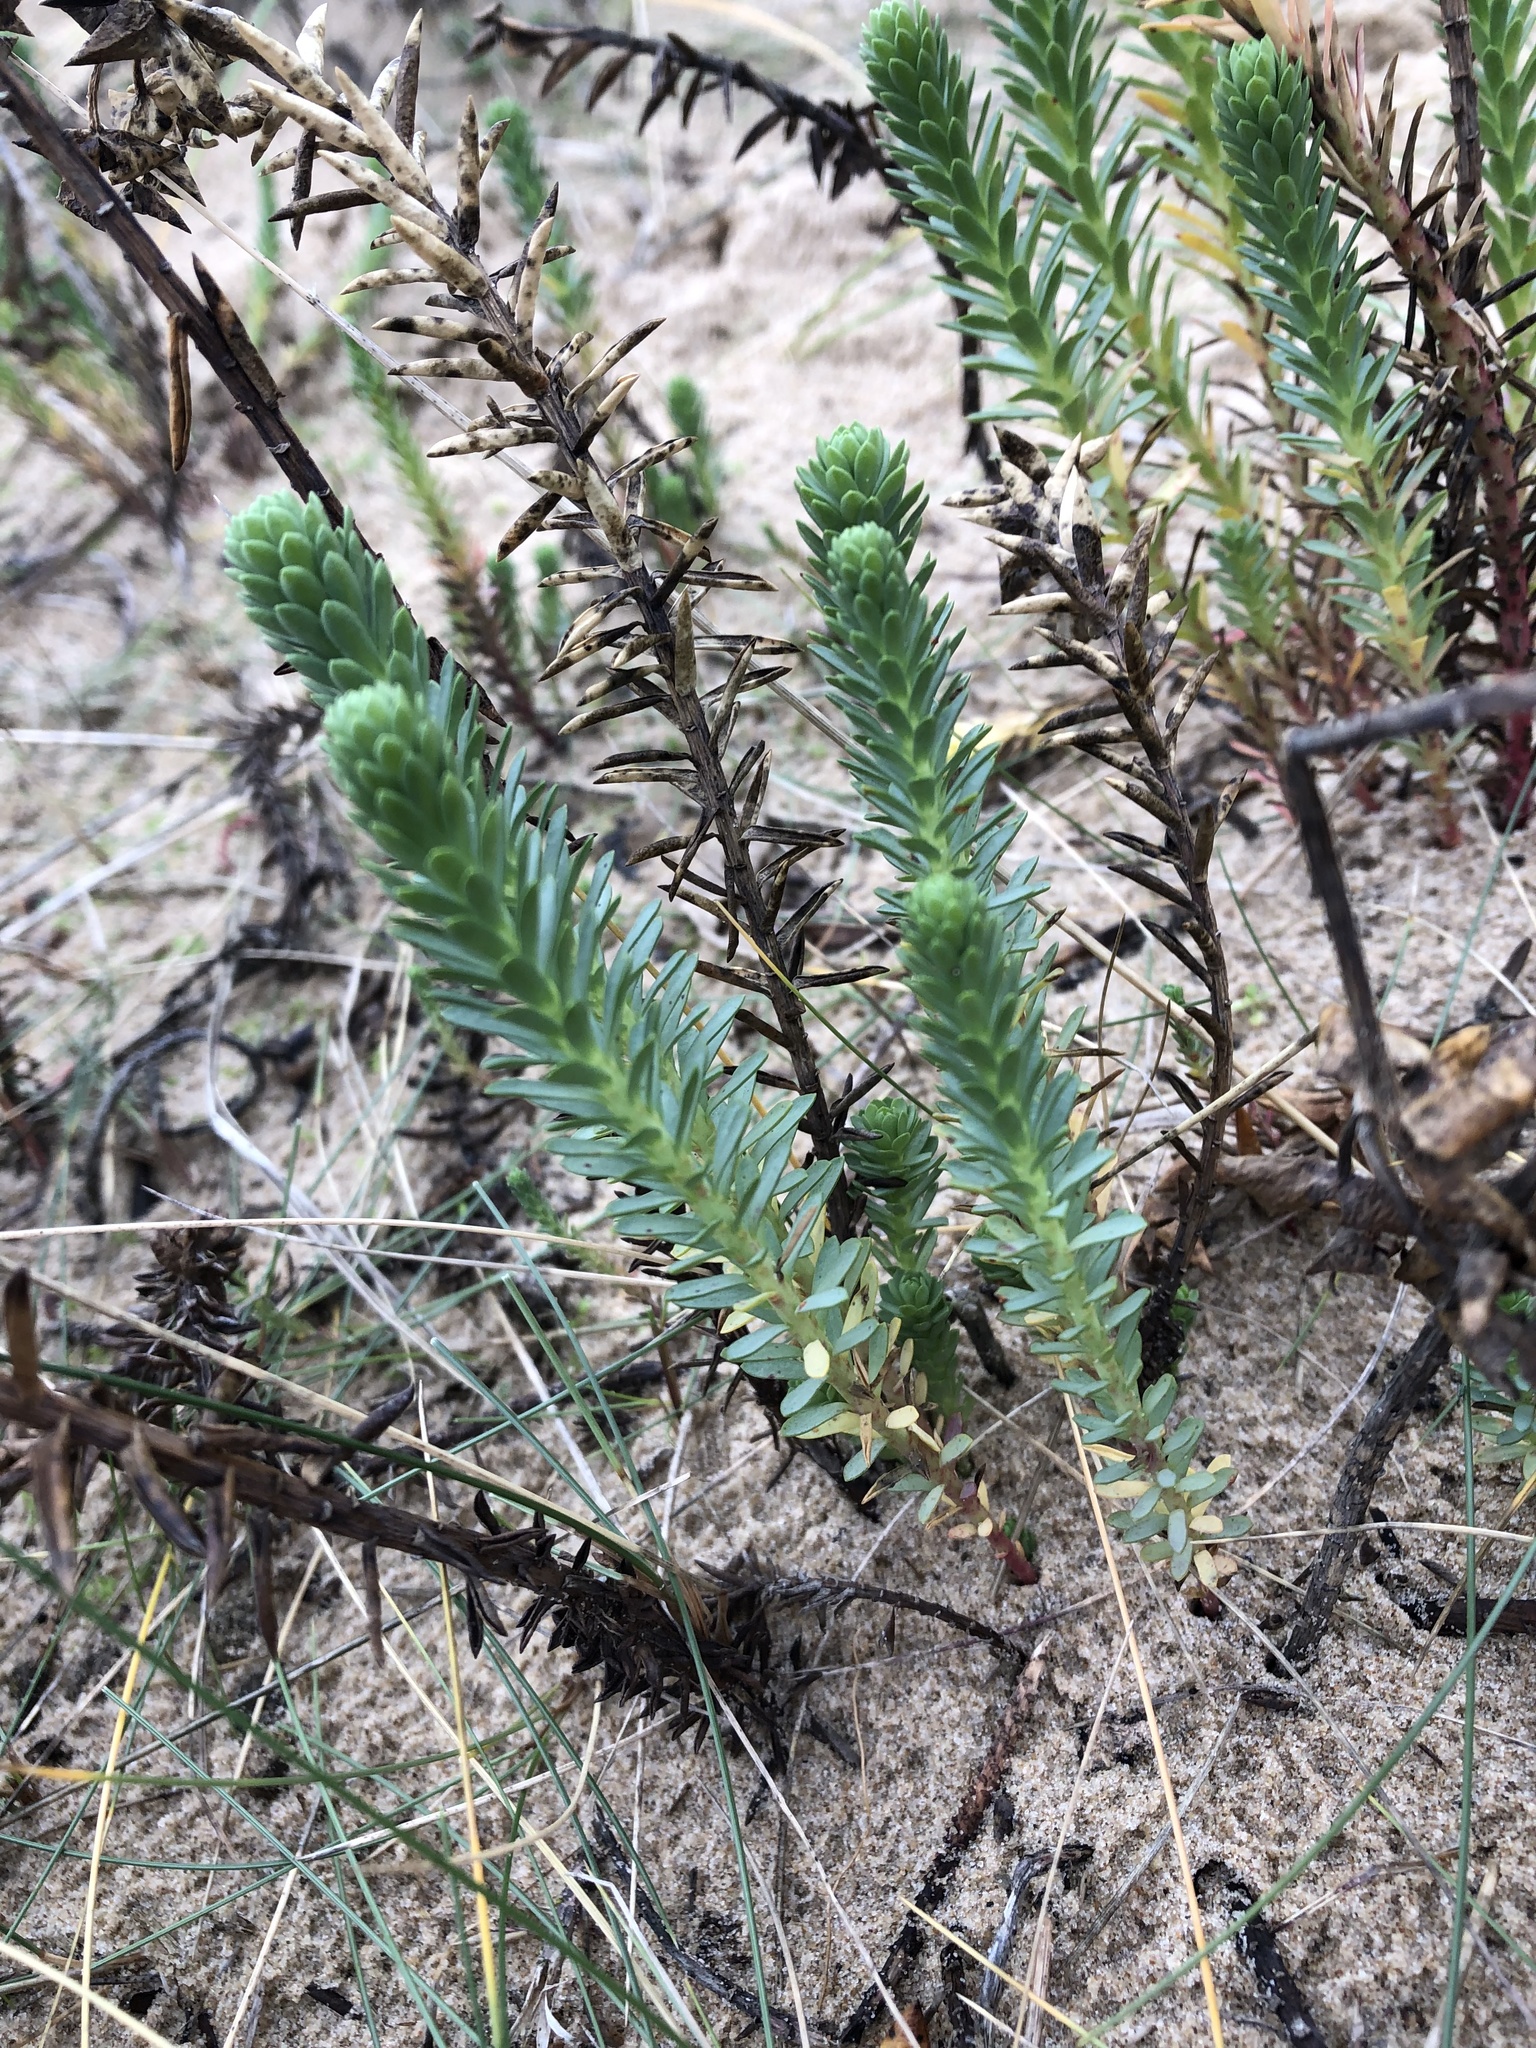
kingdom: Plantae
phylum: Tracheophyta
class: Magnoliopsida
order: Malpighiales
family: Euphorbiaceae
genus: Euphorbia
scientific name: Euphorbia paralias
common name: Sea spurge
